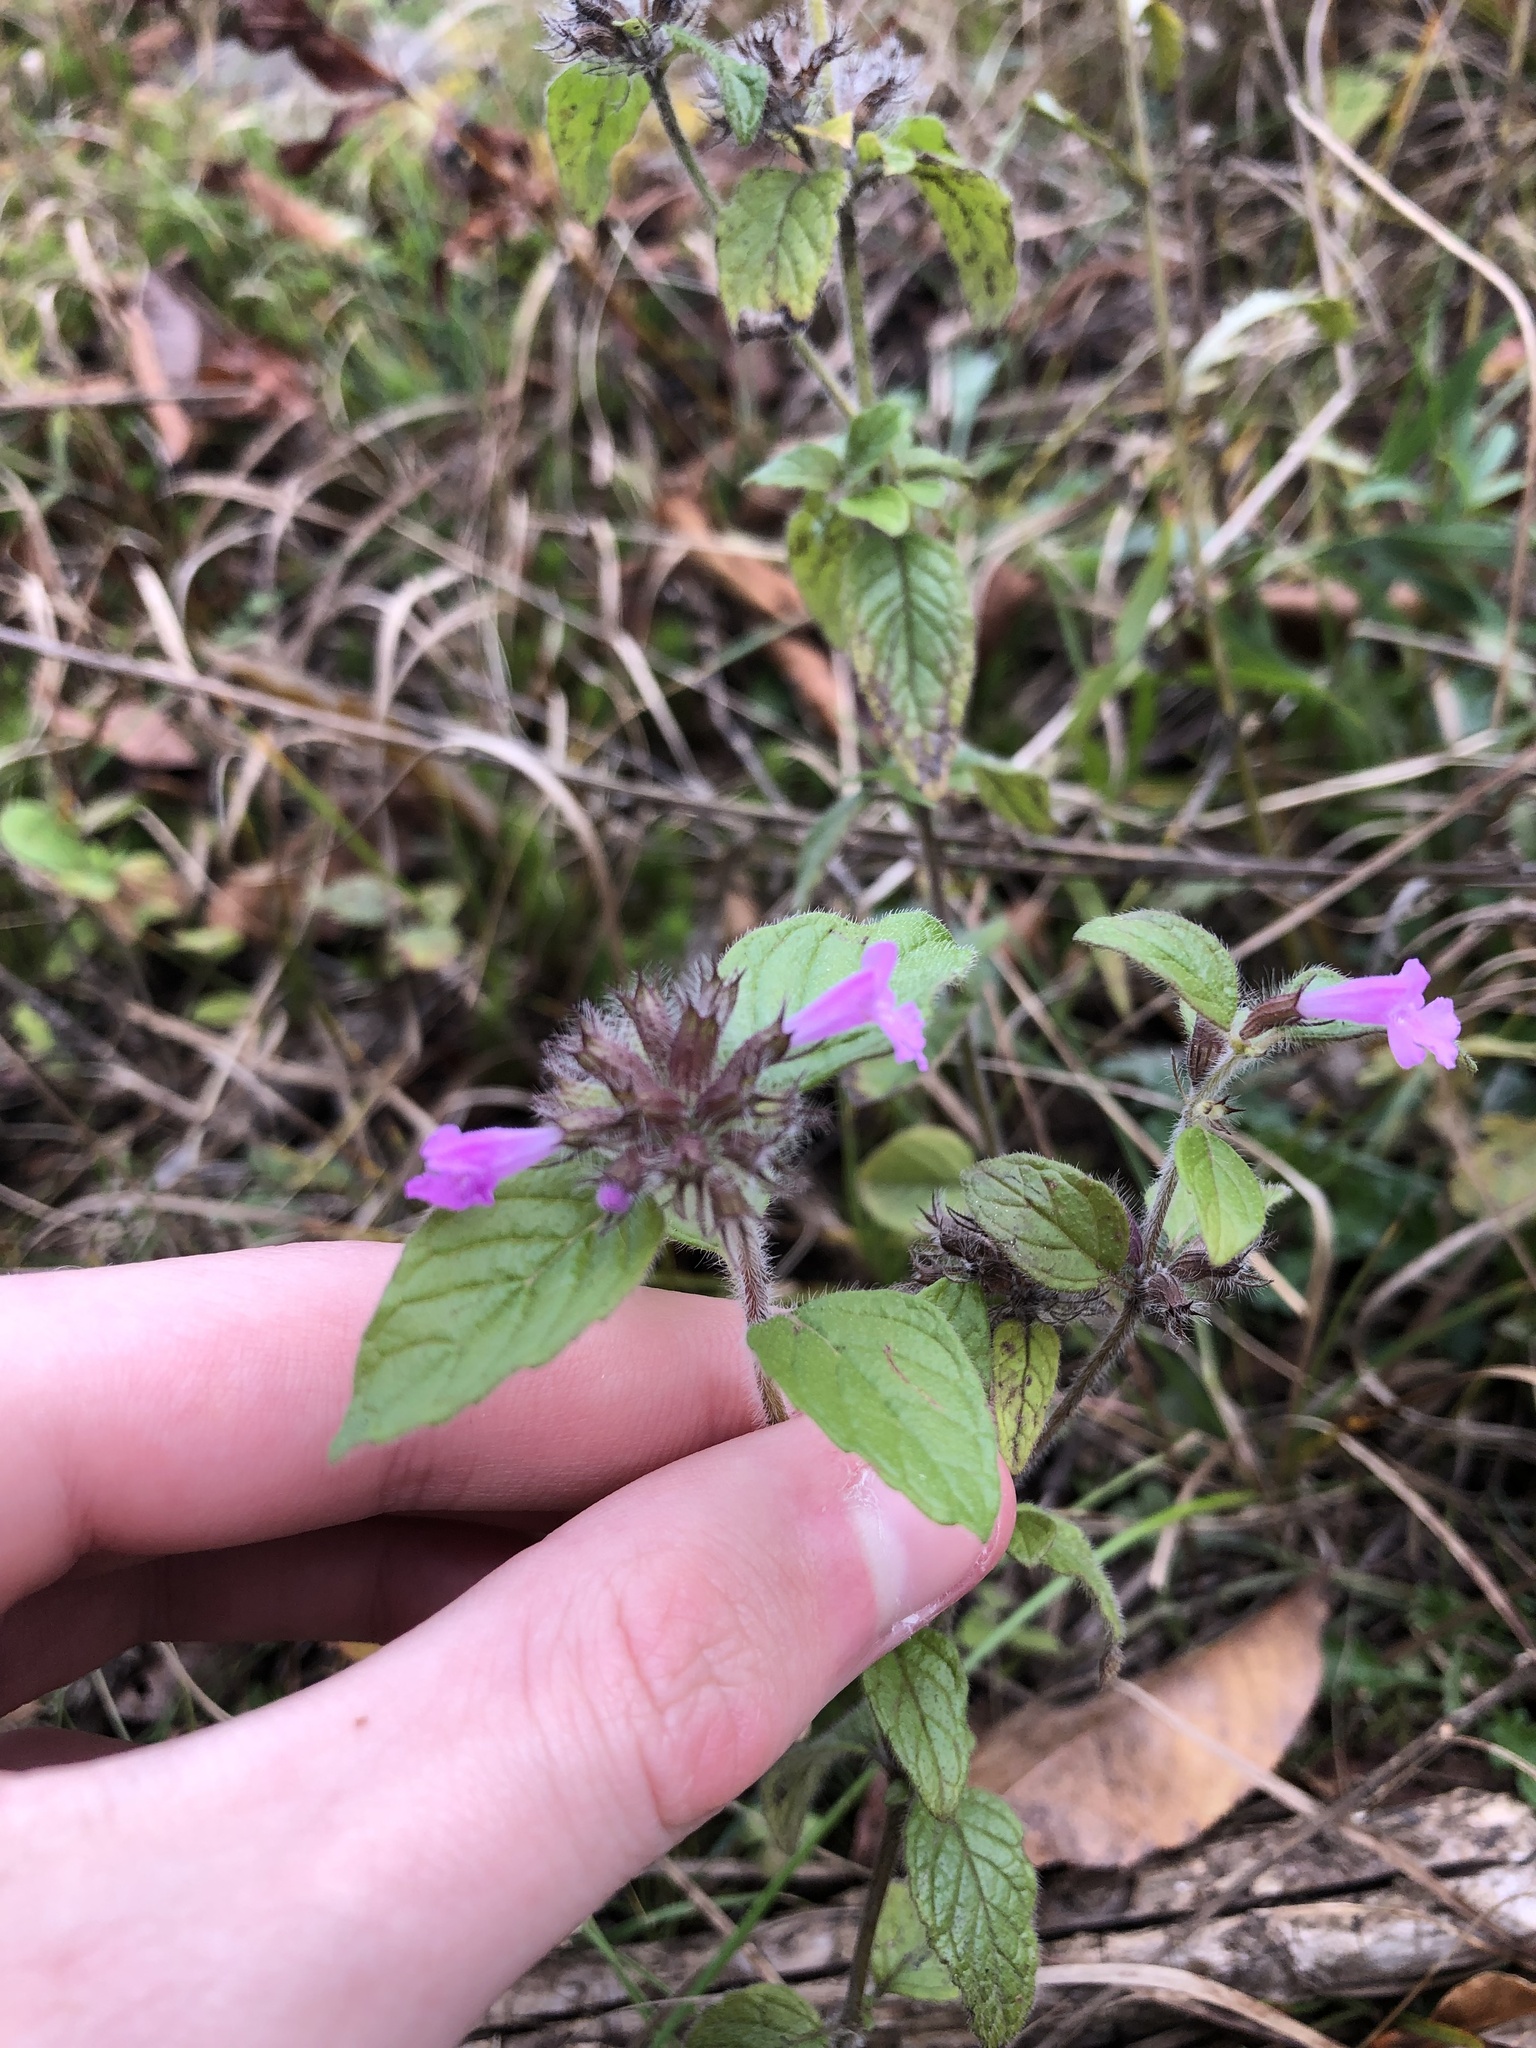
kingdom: Plantae
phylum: Tracheophyta
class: Magnoliopsida
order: Lamiales
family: Lamiaceae
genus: Clinopodium
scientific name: Clinopodium vulgare
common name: Wild basil
